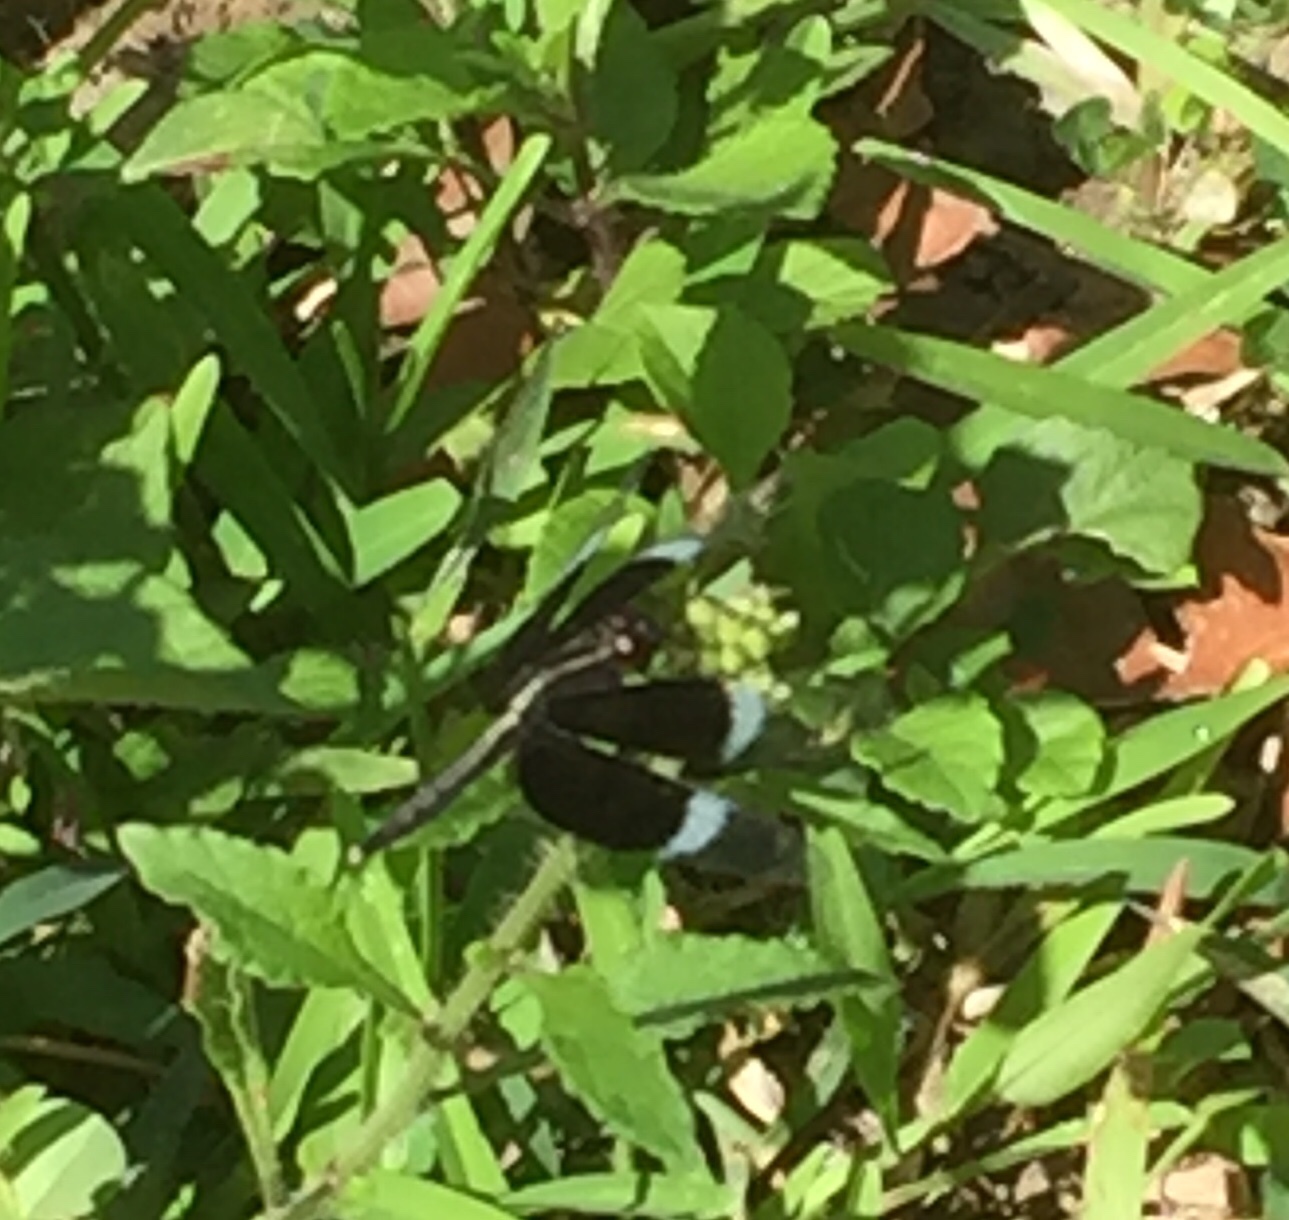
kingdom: Animalia
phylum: Arthropoda
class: Insecta
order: Odonata
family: Libellulidae
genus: Neurothemis
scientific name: Neurothemis tullia
